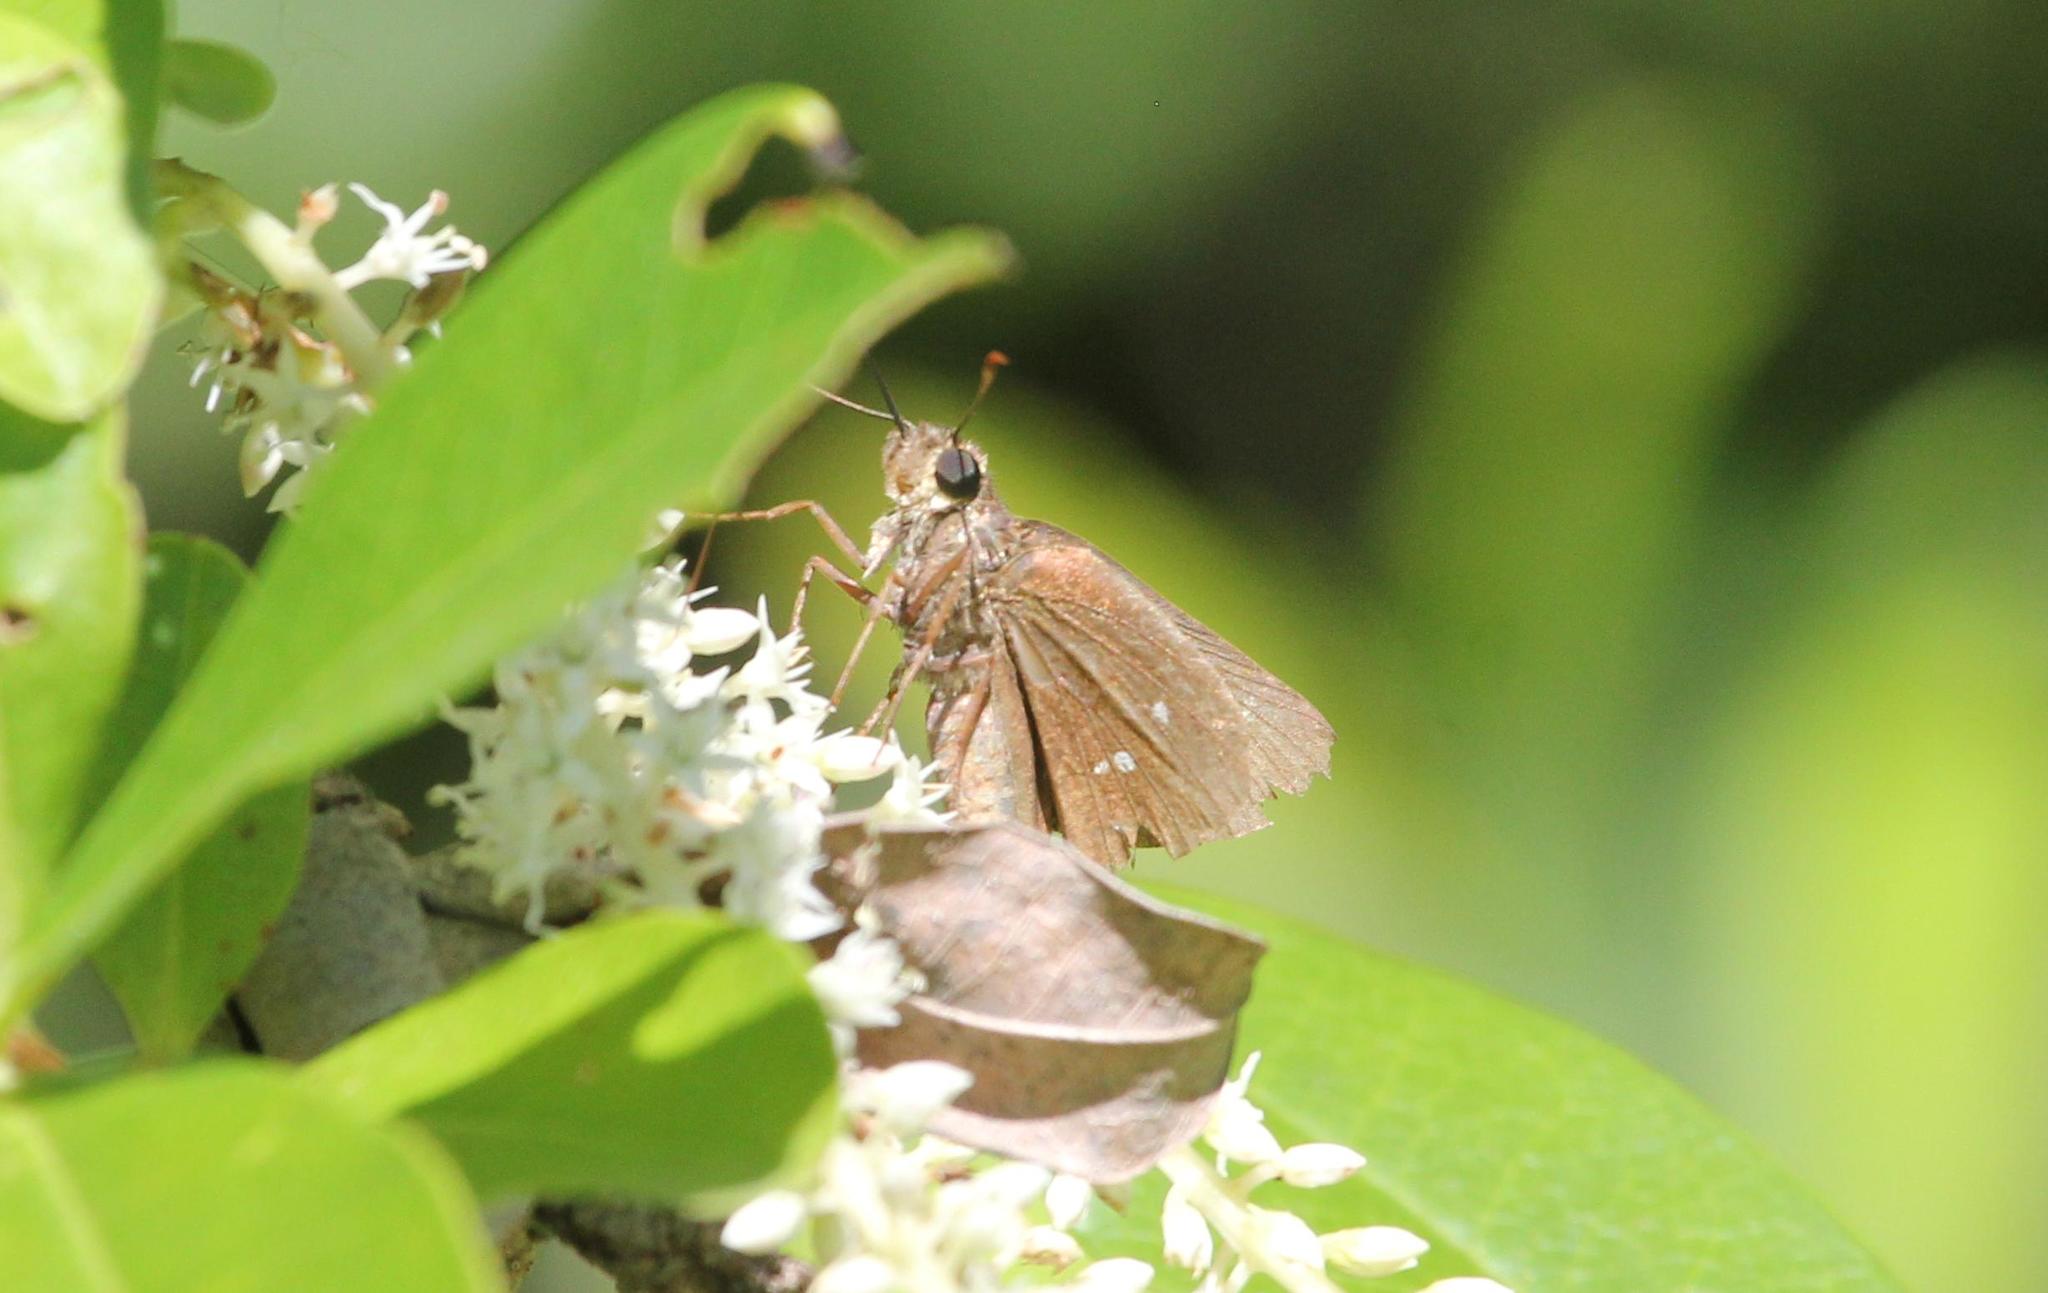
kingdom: Animalia
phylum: Arthropoda
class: Insecta
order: Lepidoptera
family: Hesperiidae
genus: Oligoria
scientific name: Oligoria maculata
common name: Twin-spot skipper
